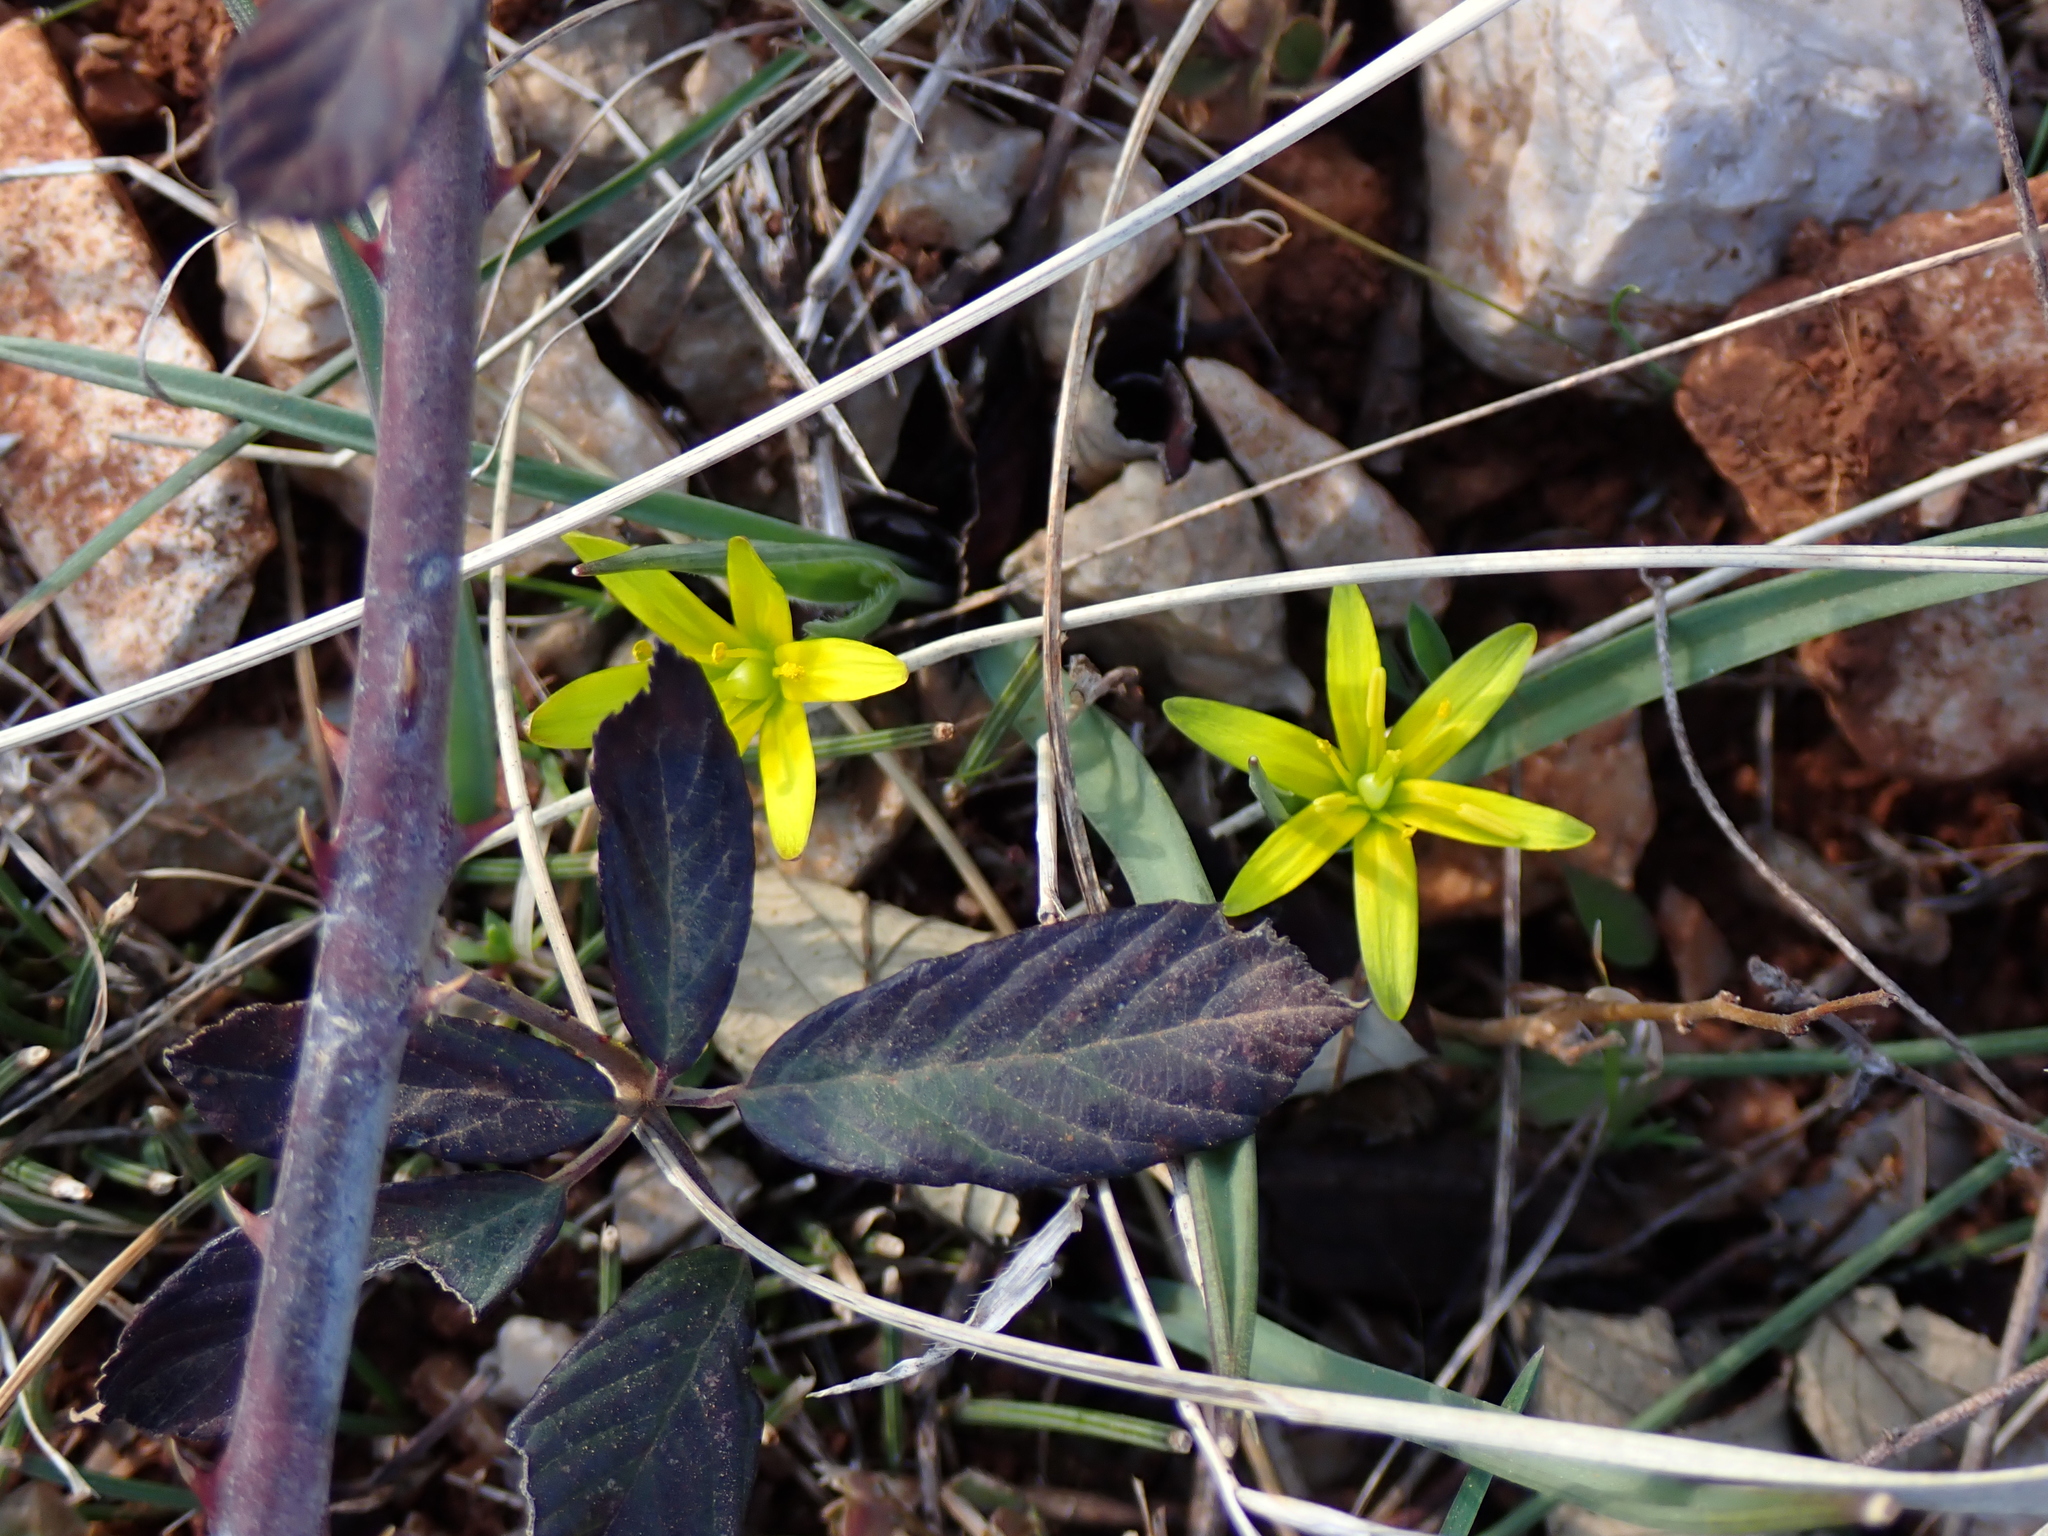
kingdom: Plantae
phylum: Tracheophyta
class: Liliopsida
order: Liliales
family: Liliaceae
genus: Gagea
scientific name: Gagea pratensis
